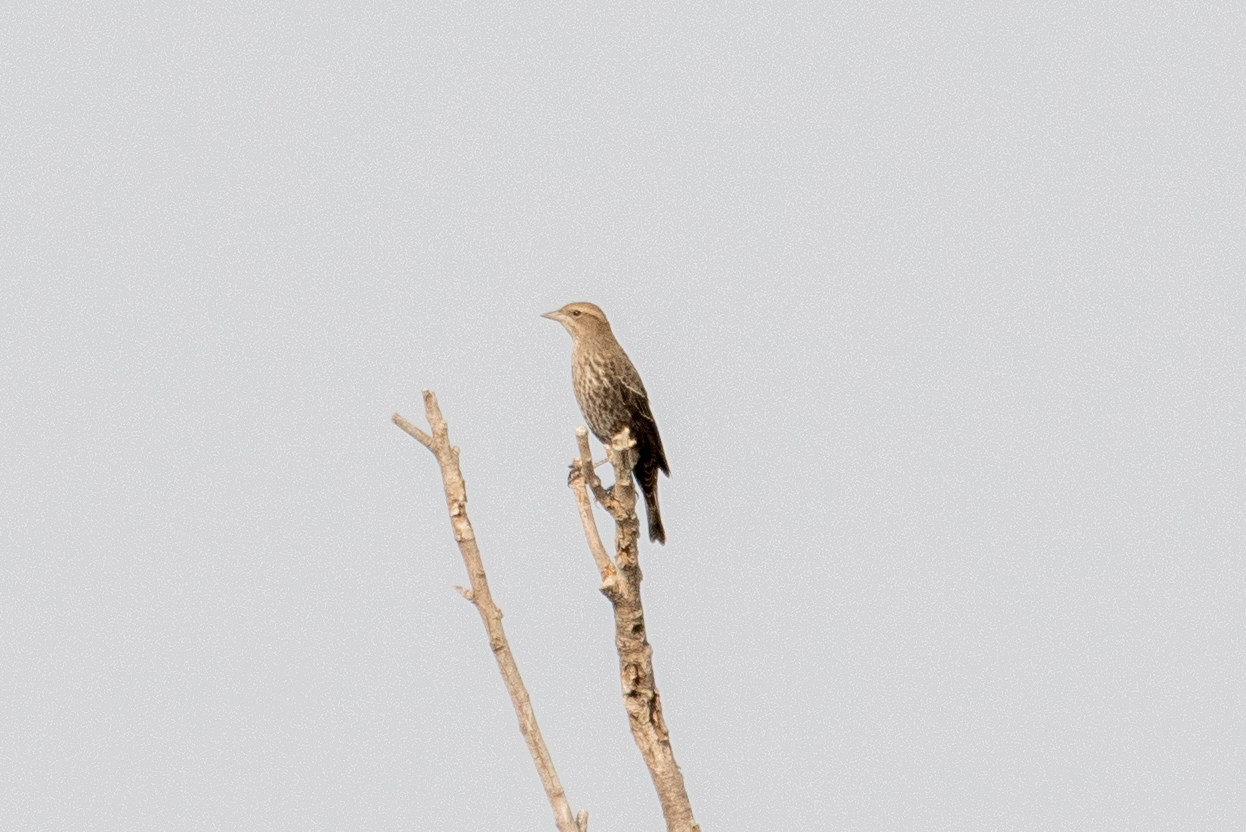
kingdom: Animalia
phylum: Chordata
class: Aves
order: Passeriformes
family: Icteridae
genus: Agelaius
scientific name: Agelaius phoeniceus
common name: Red-winged blackbird
